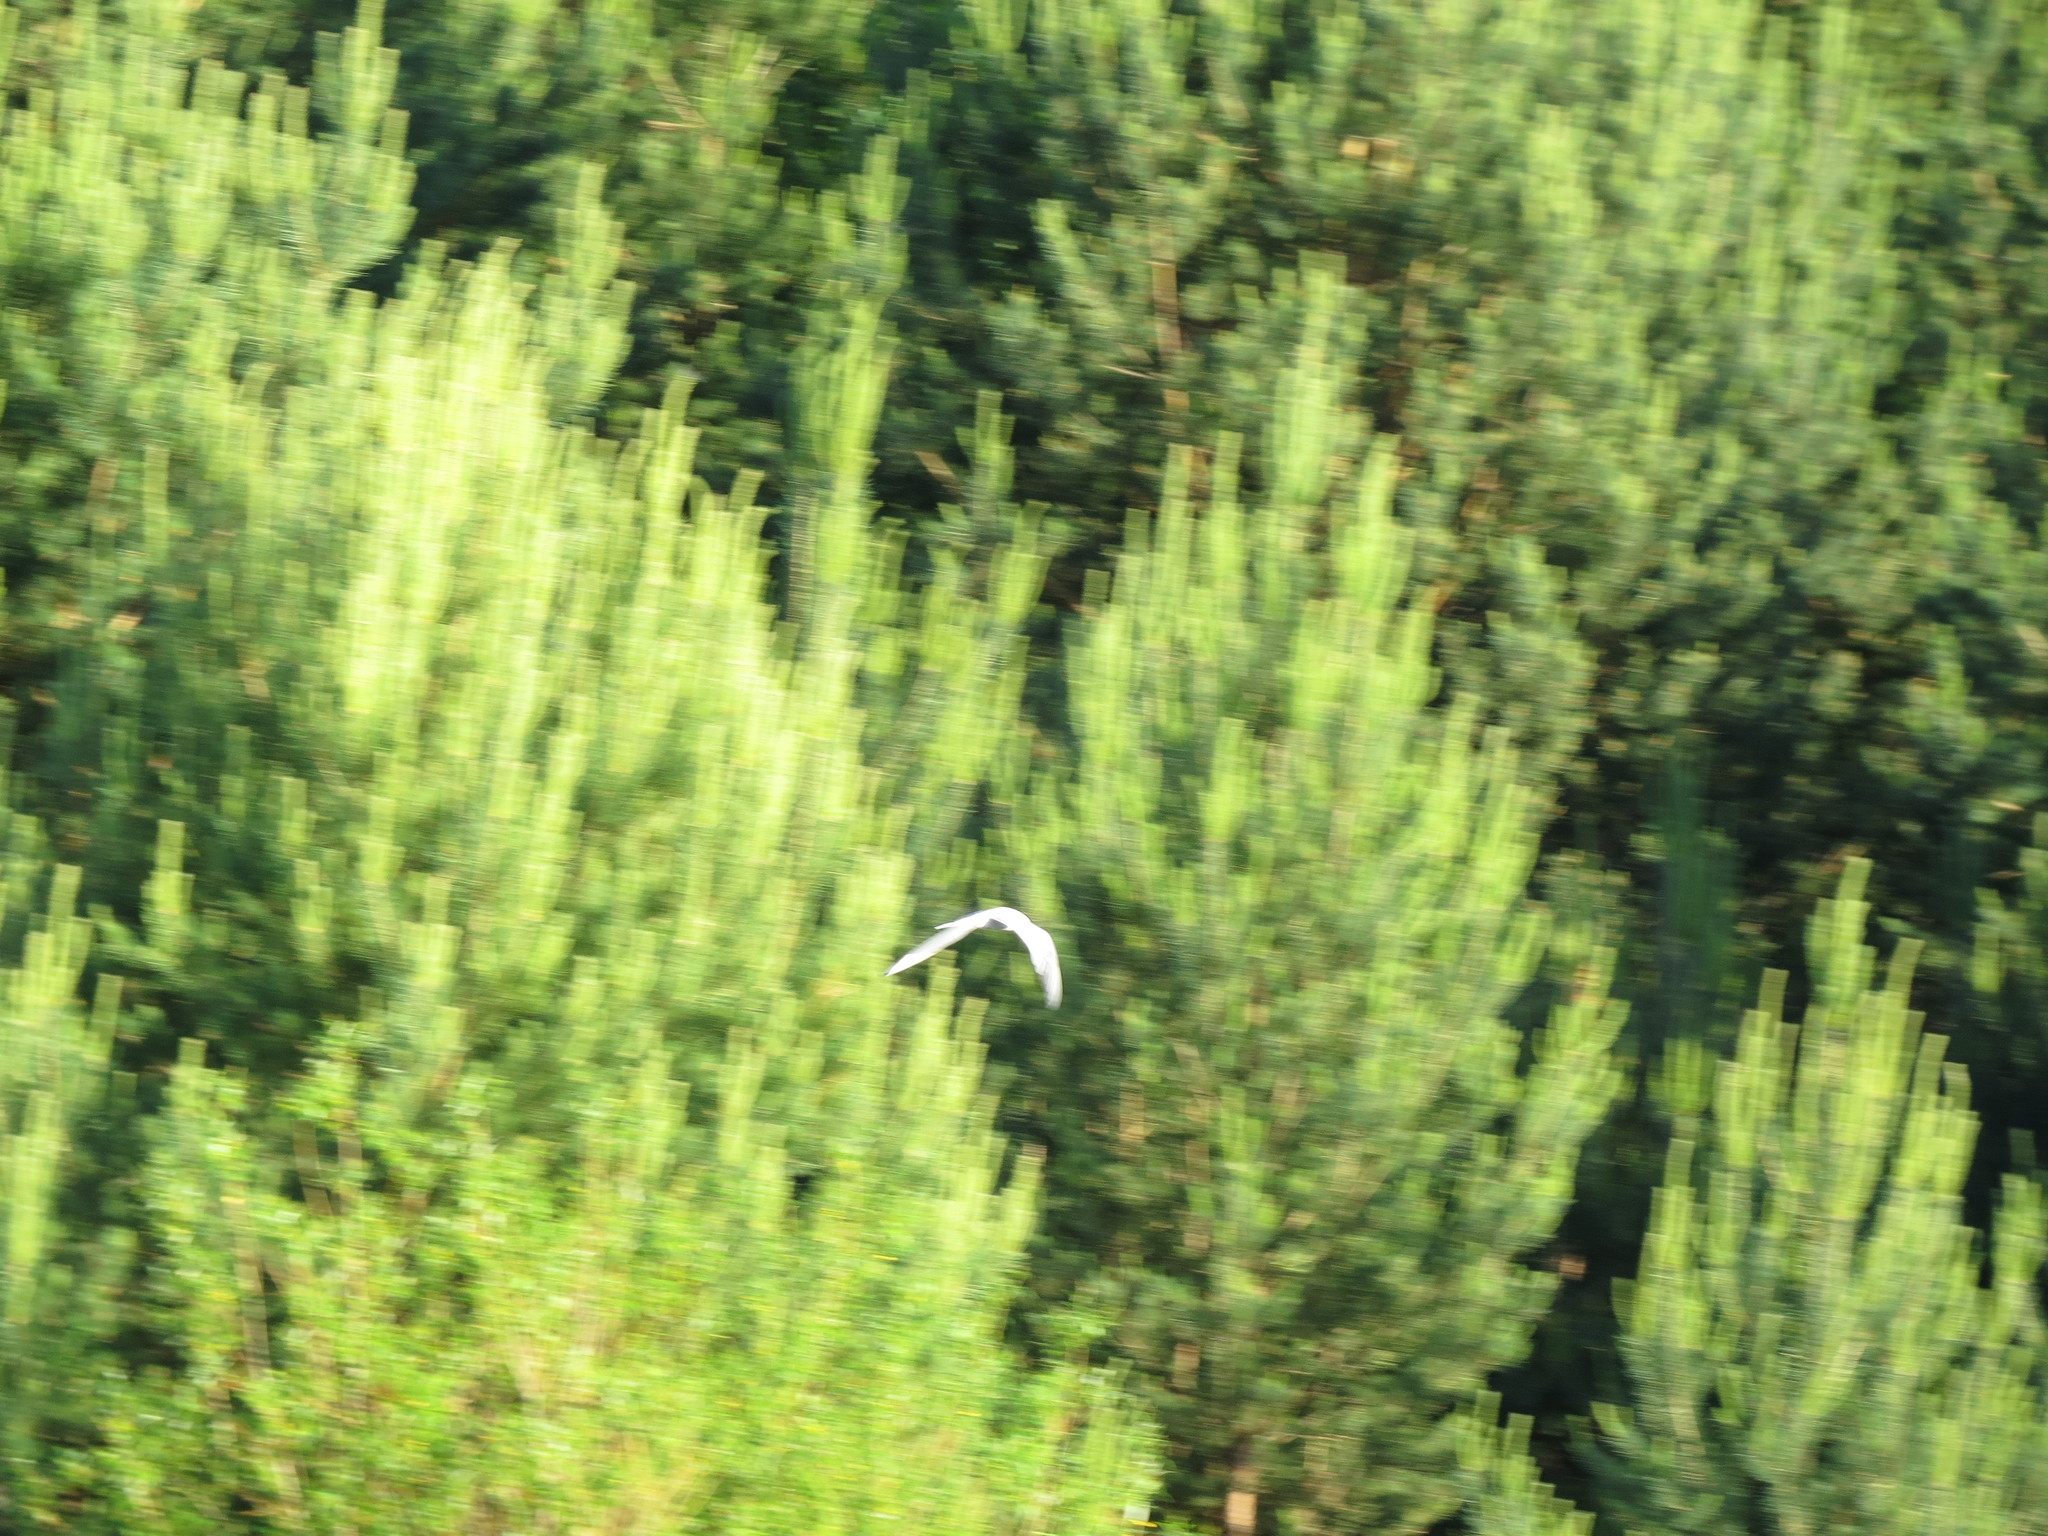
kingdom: Animalia
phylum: Chordata
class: Aves
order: Charadriiformes
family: Laridae
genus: Sterna
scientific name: Sterna hirundo
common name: Common tern
